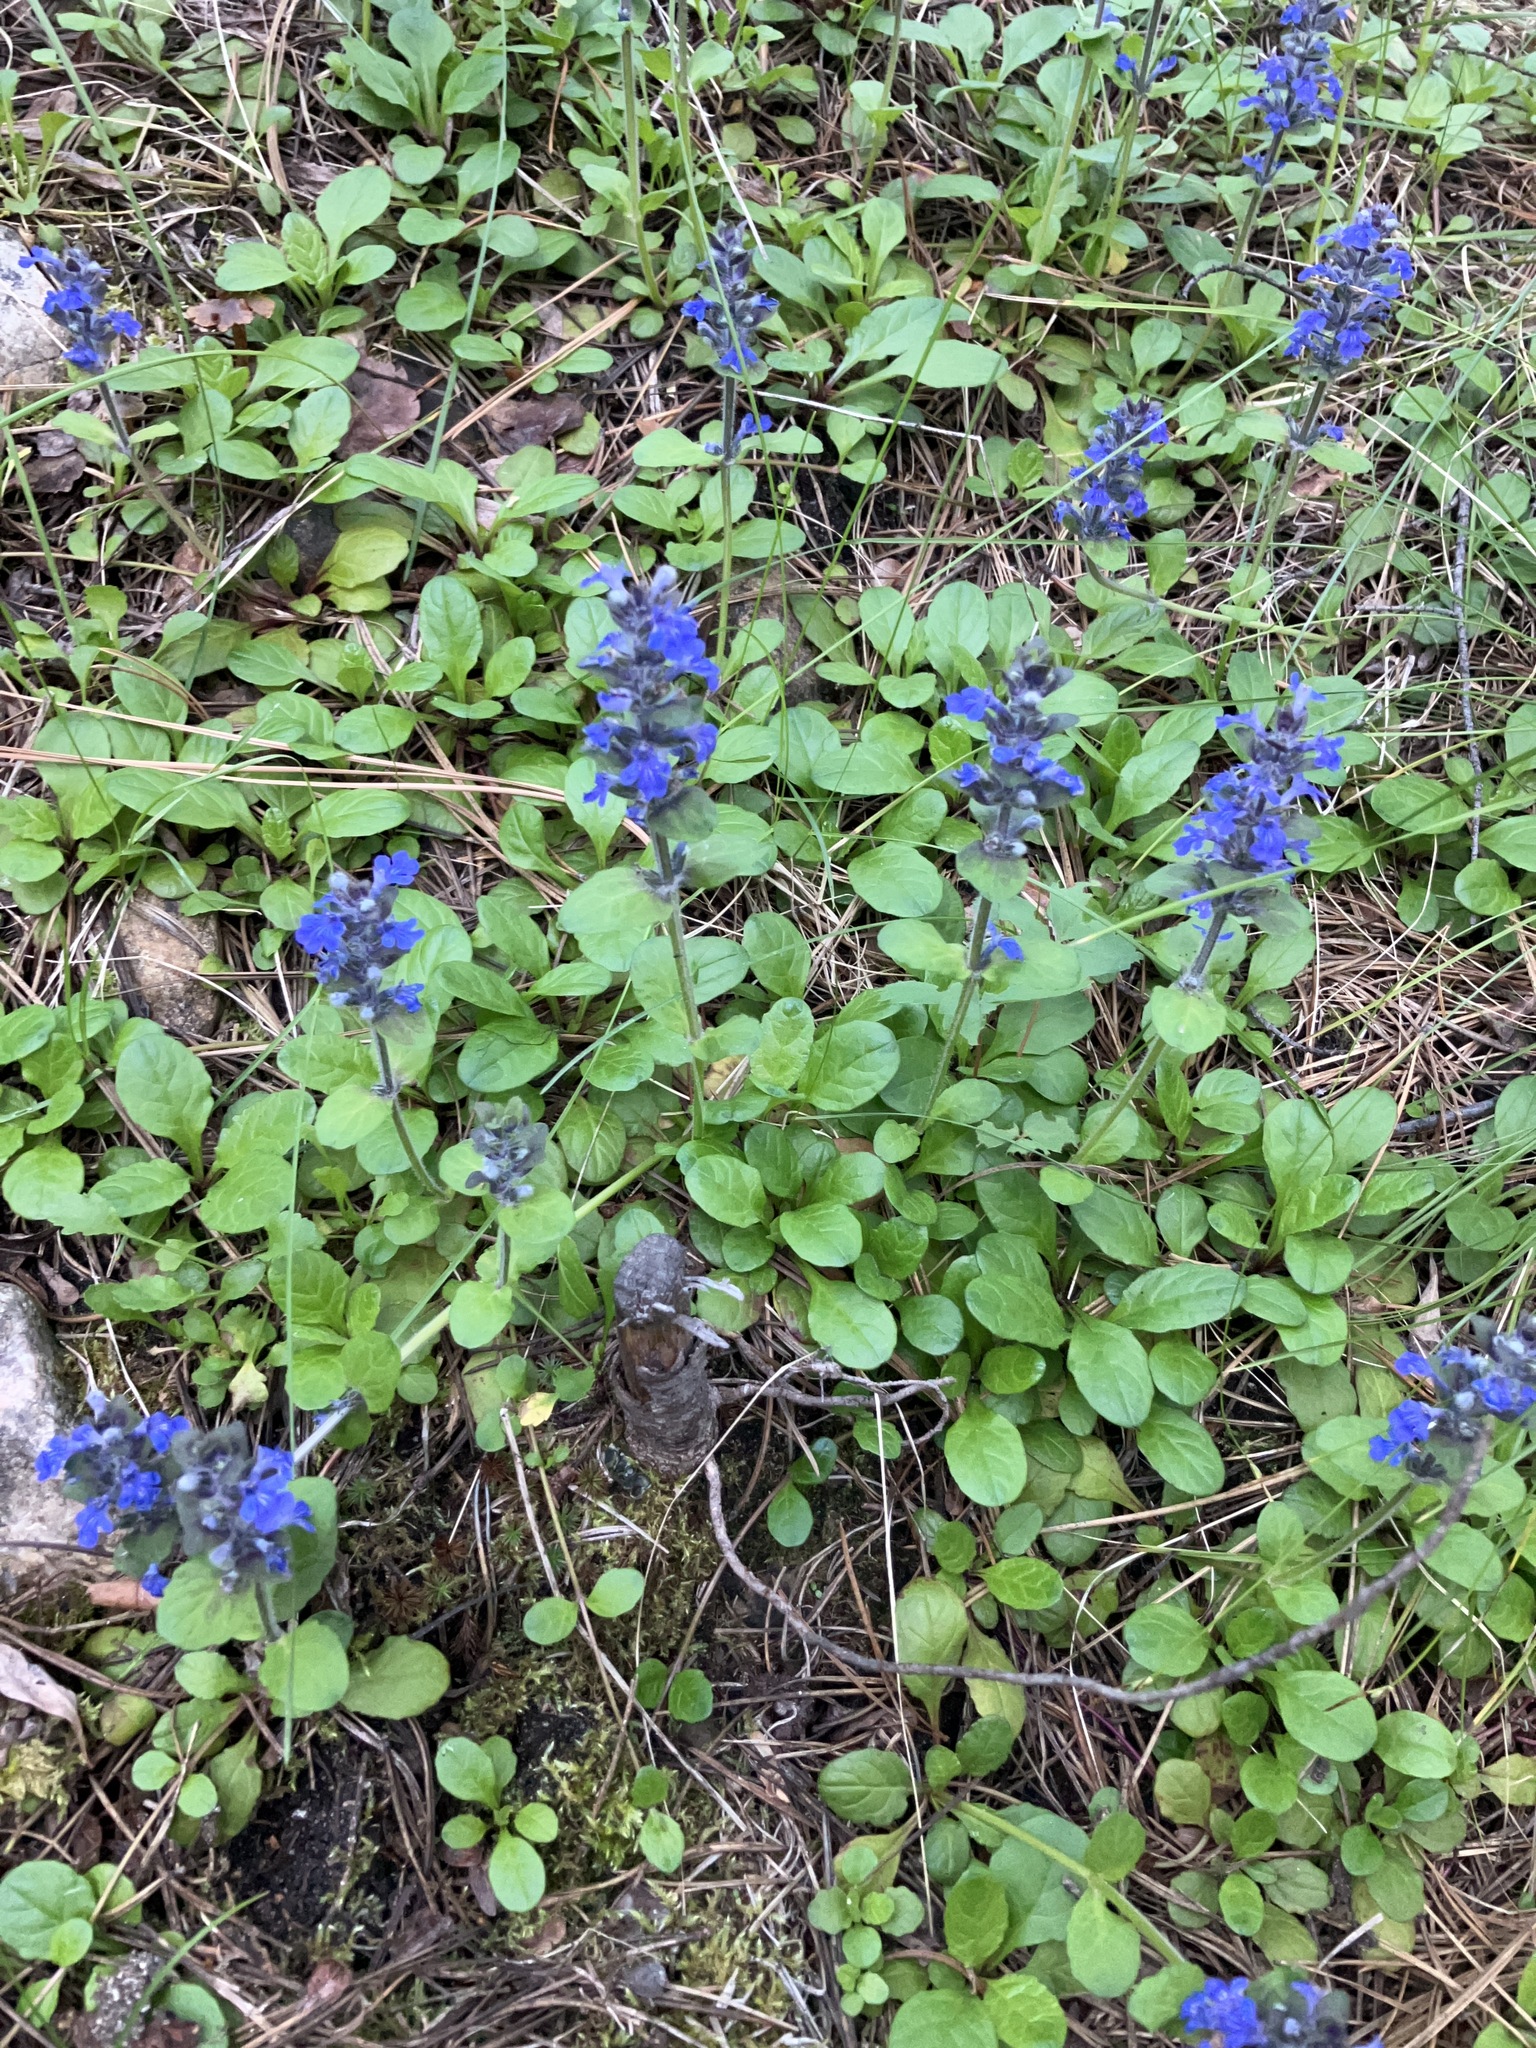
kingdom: Plantae
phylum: Tracheophyta
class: Magnoliopsida
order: Lamiales
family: Lamiaceae
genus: Ajuga
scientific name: Ajuga reptans
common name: Bugle
